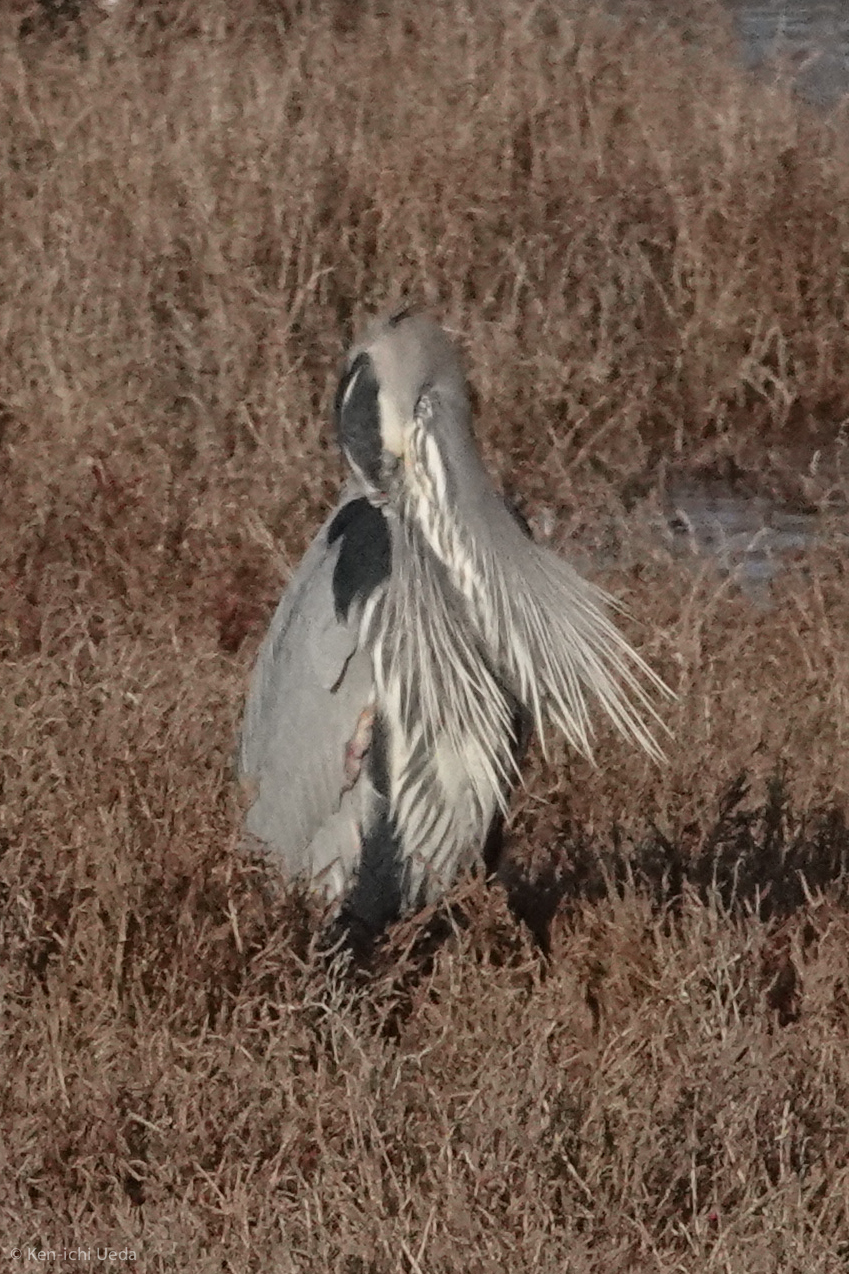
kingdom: Animalia
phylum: Chordata
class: Aves
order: Pelecaniformes
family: Ardeidae
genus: Ardea
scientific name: Ardea herodias
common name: Great blue heron
